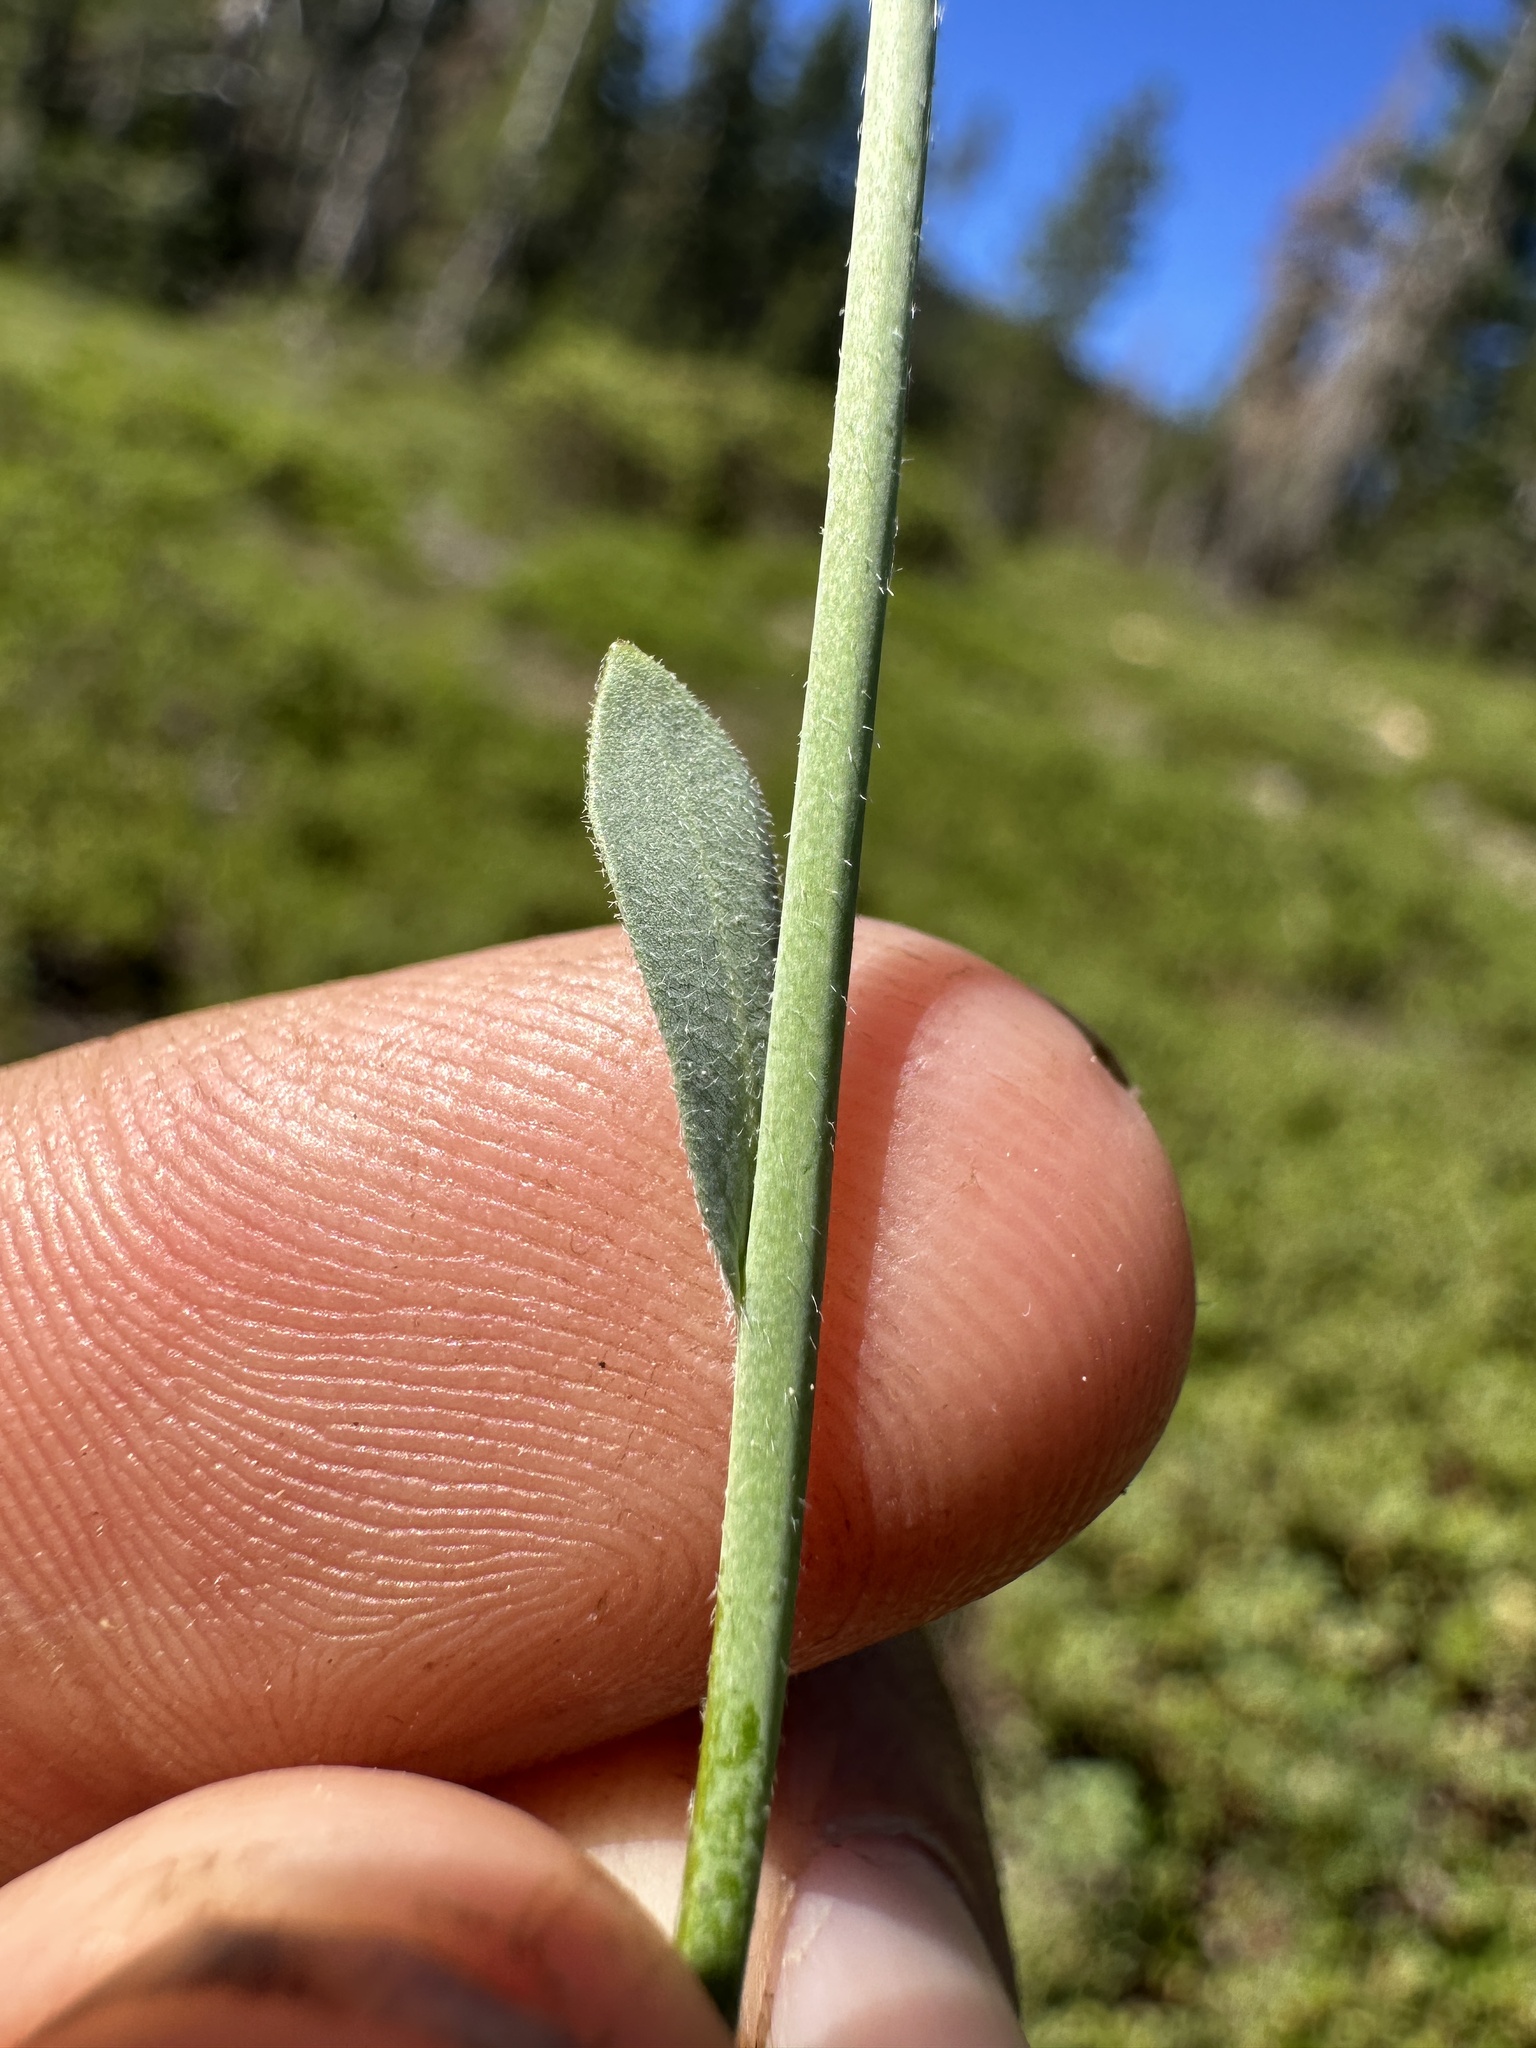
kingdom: Plantae
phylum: Tracheophyta
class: Magnoliopsida
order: Brassicales
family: Brassicaceae
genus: Boechera
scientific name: Boechera platysperma
